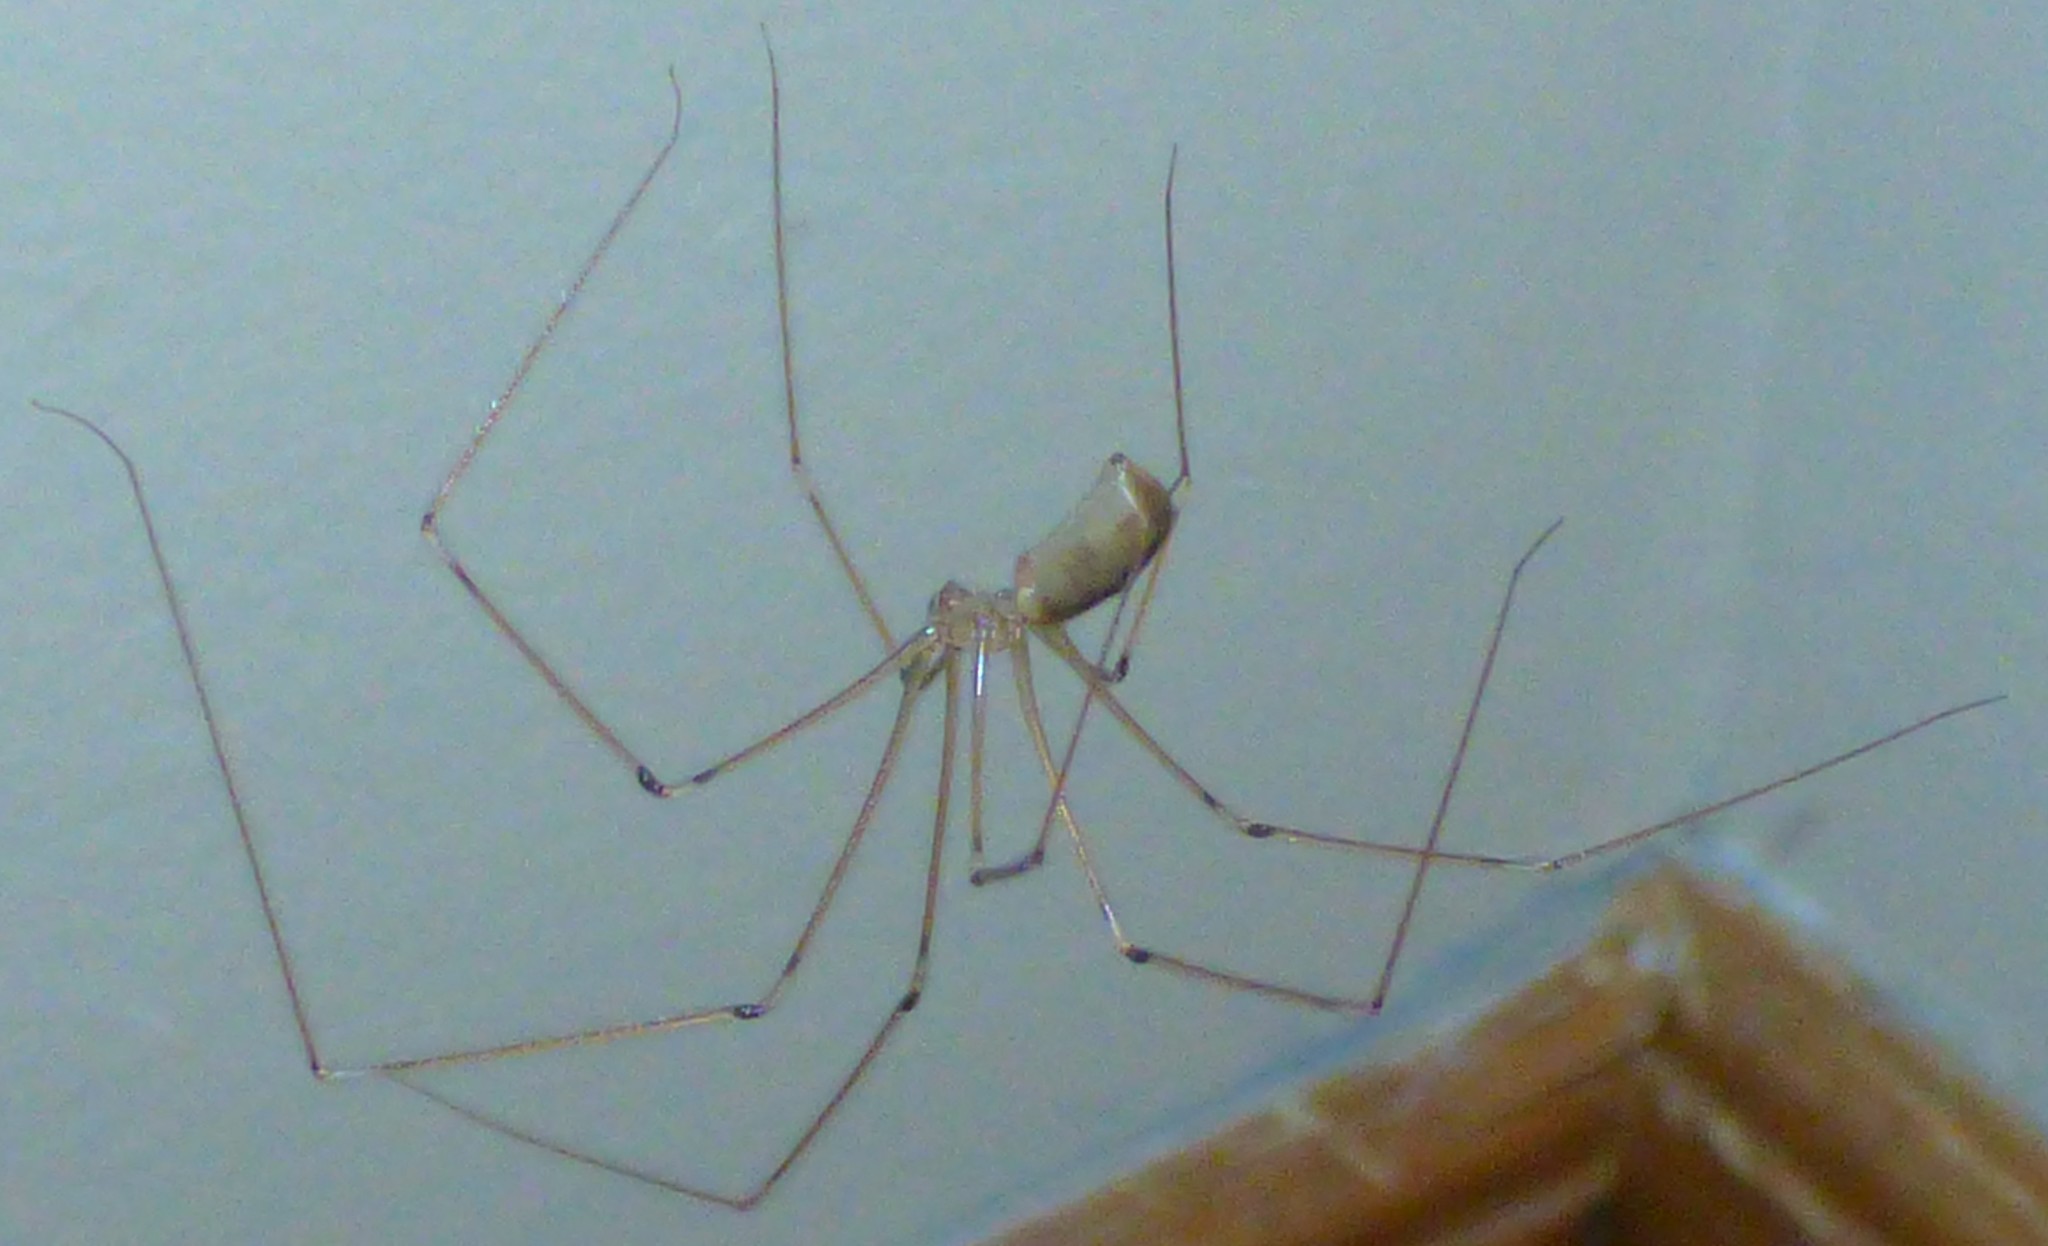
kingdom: Animalia
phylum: Arthropoda
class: Arachnida
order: Araneae
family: Pholcidae
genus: Pholcus
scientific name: Pholcus phalangioides
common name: Longbodied cellar spider
